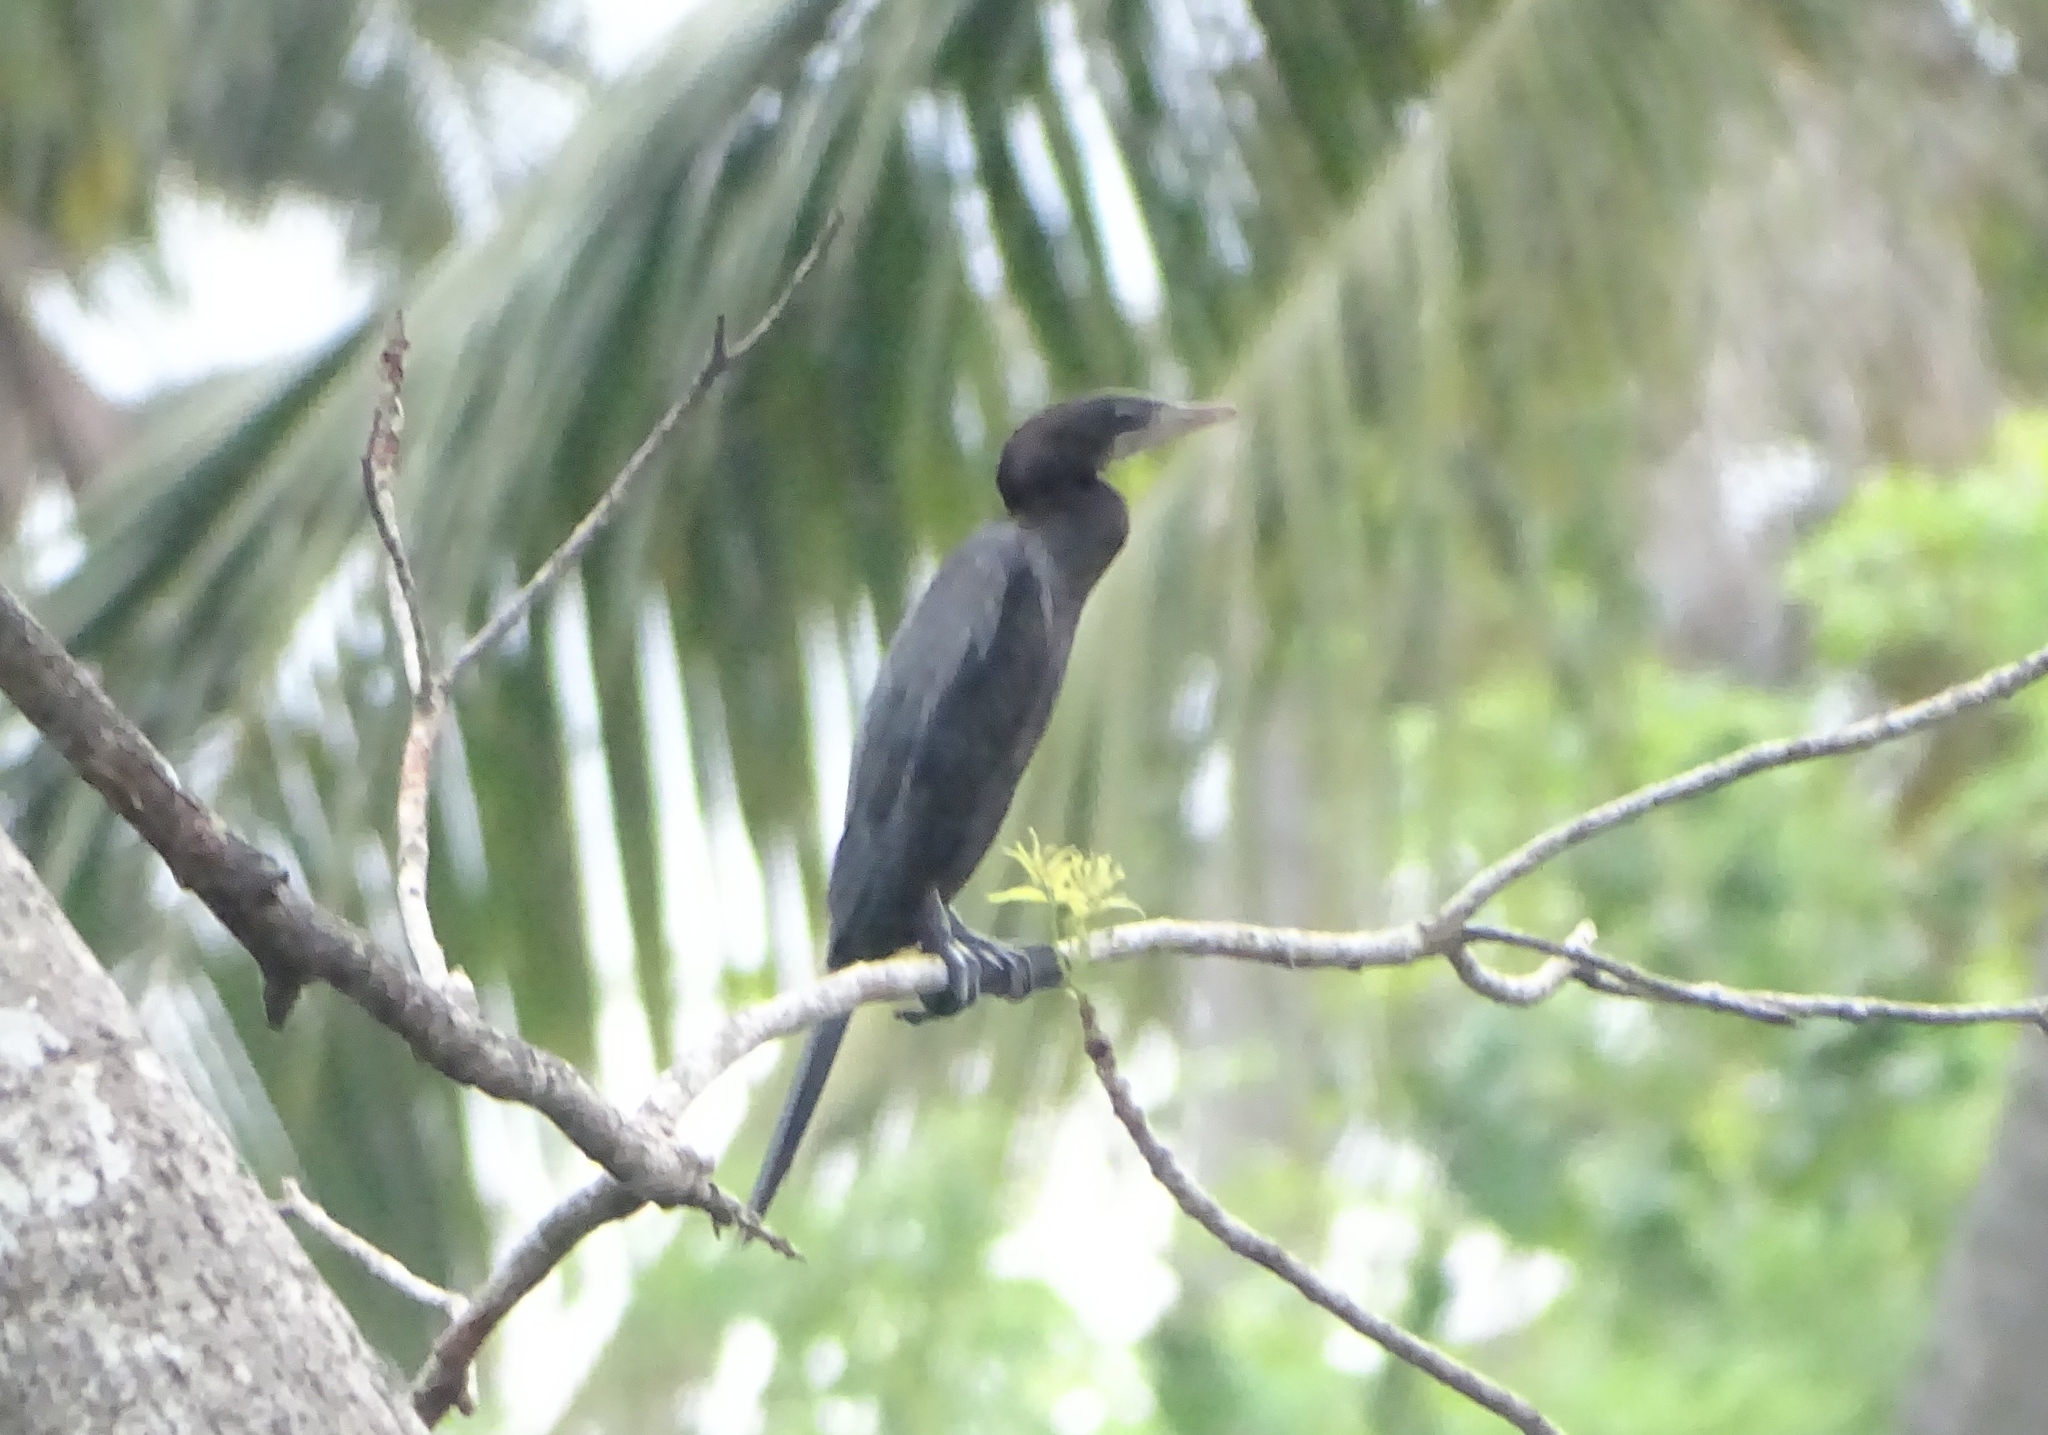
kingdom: Animalia
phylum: Chordata
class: Aves
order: Suliformes
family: Phalacrocoracidae
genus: Microcarbo
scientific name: Microcarbo niger
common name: Little cormorant
